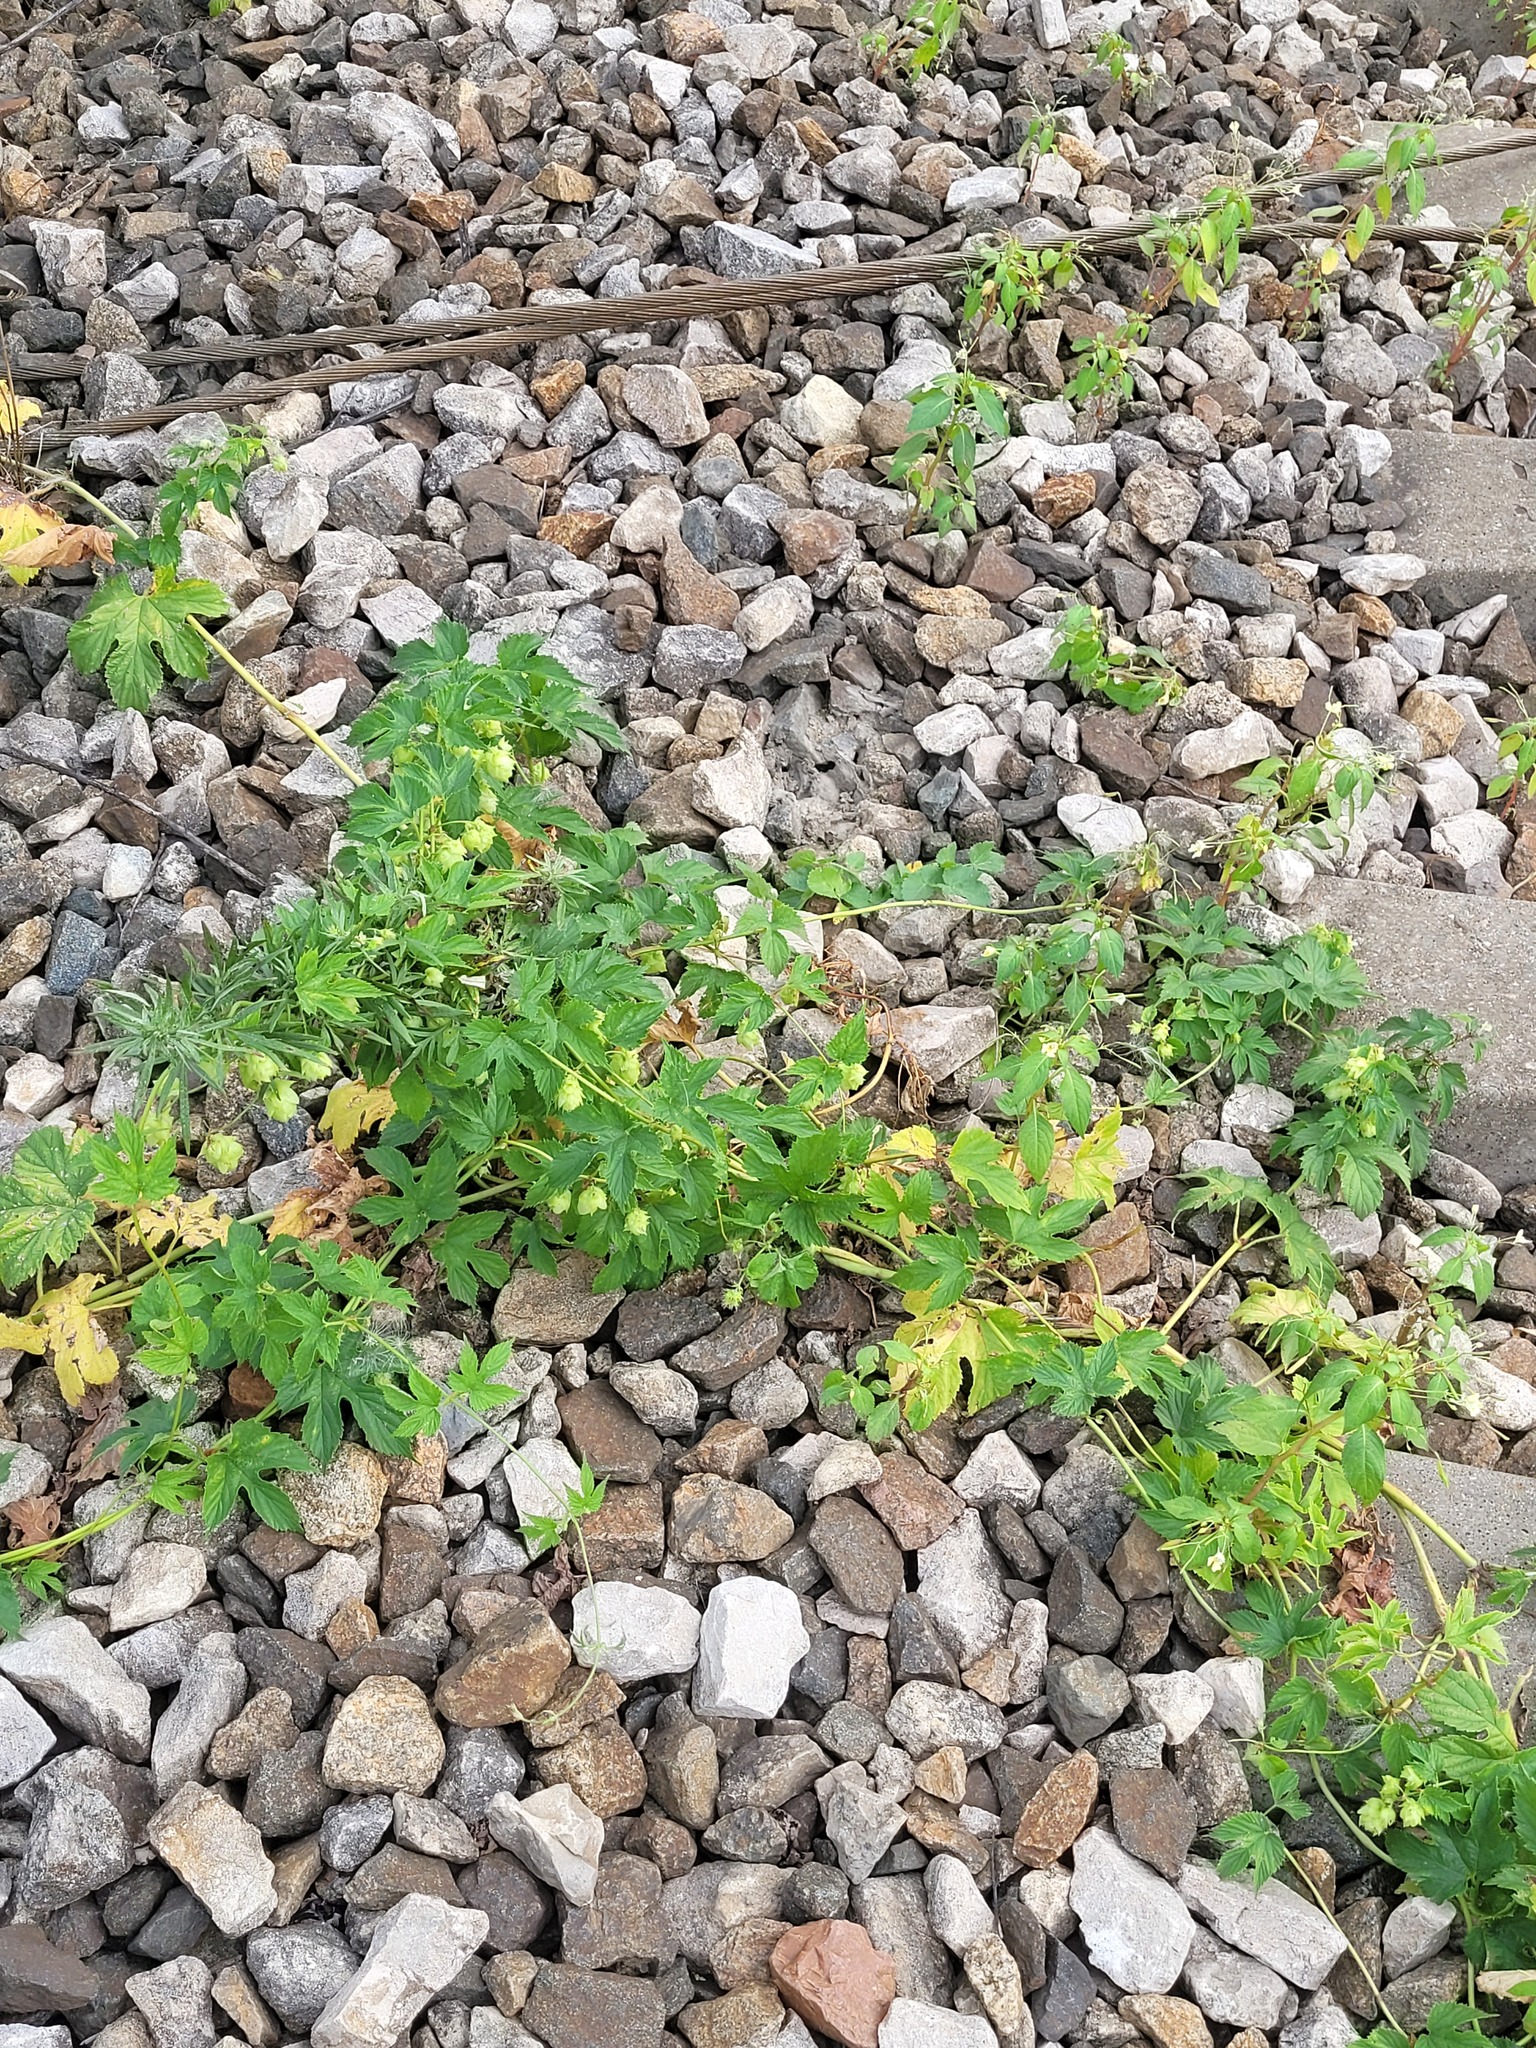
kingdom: Plantae
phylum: Tracheophyta
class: Magnoliopsida
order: Rosales
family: Cannabaceae
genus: Humulus
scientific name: Humulus lupulus
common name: Hop
